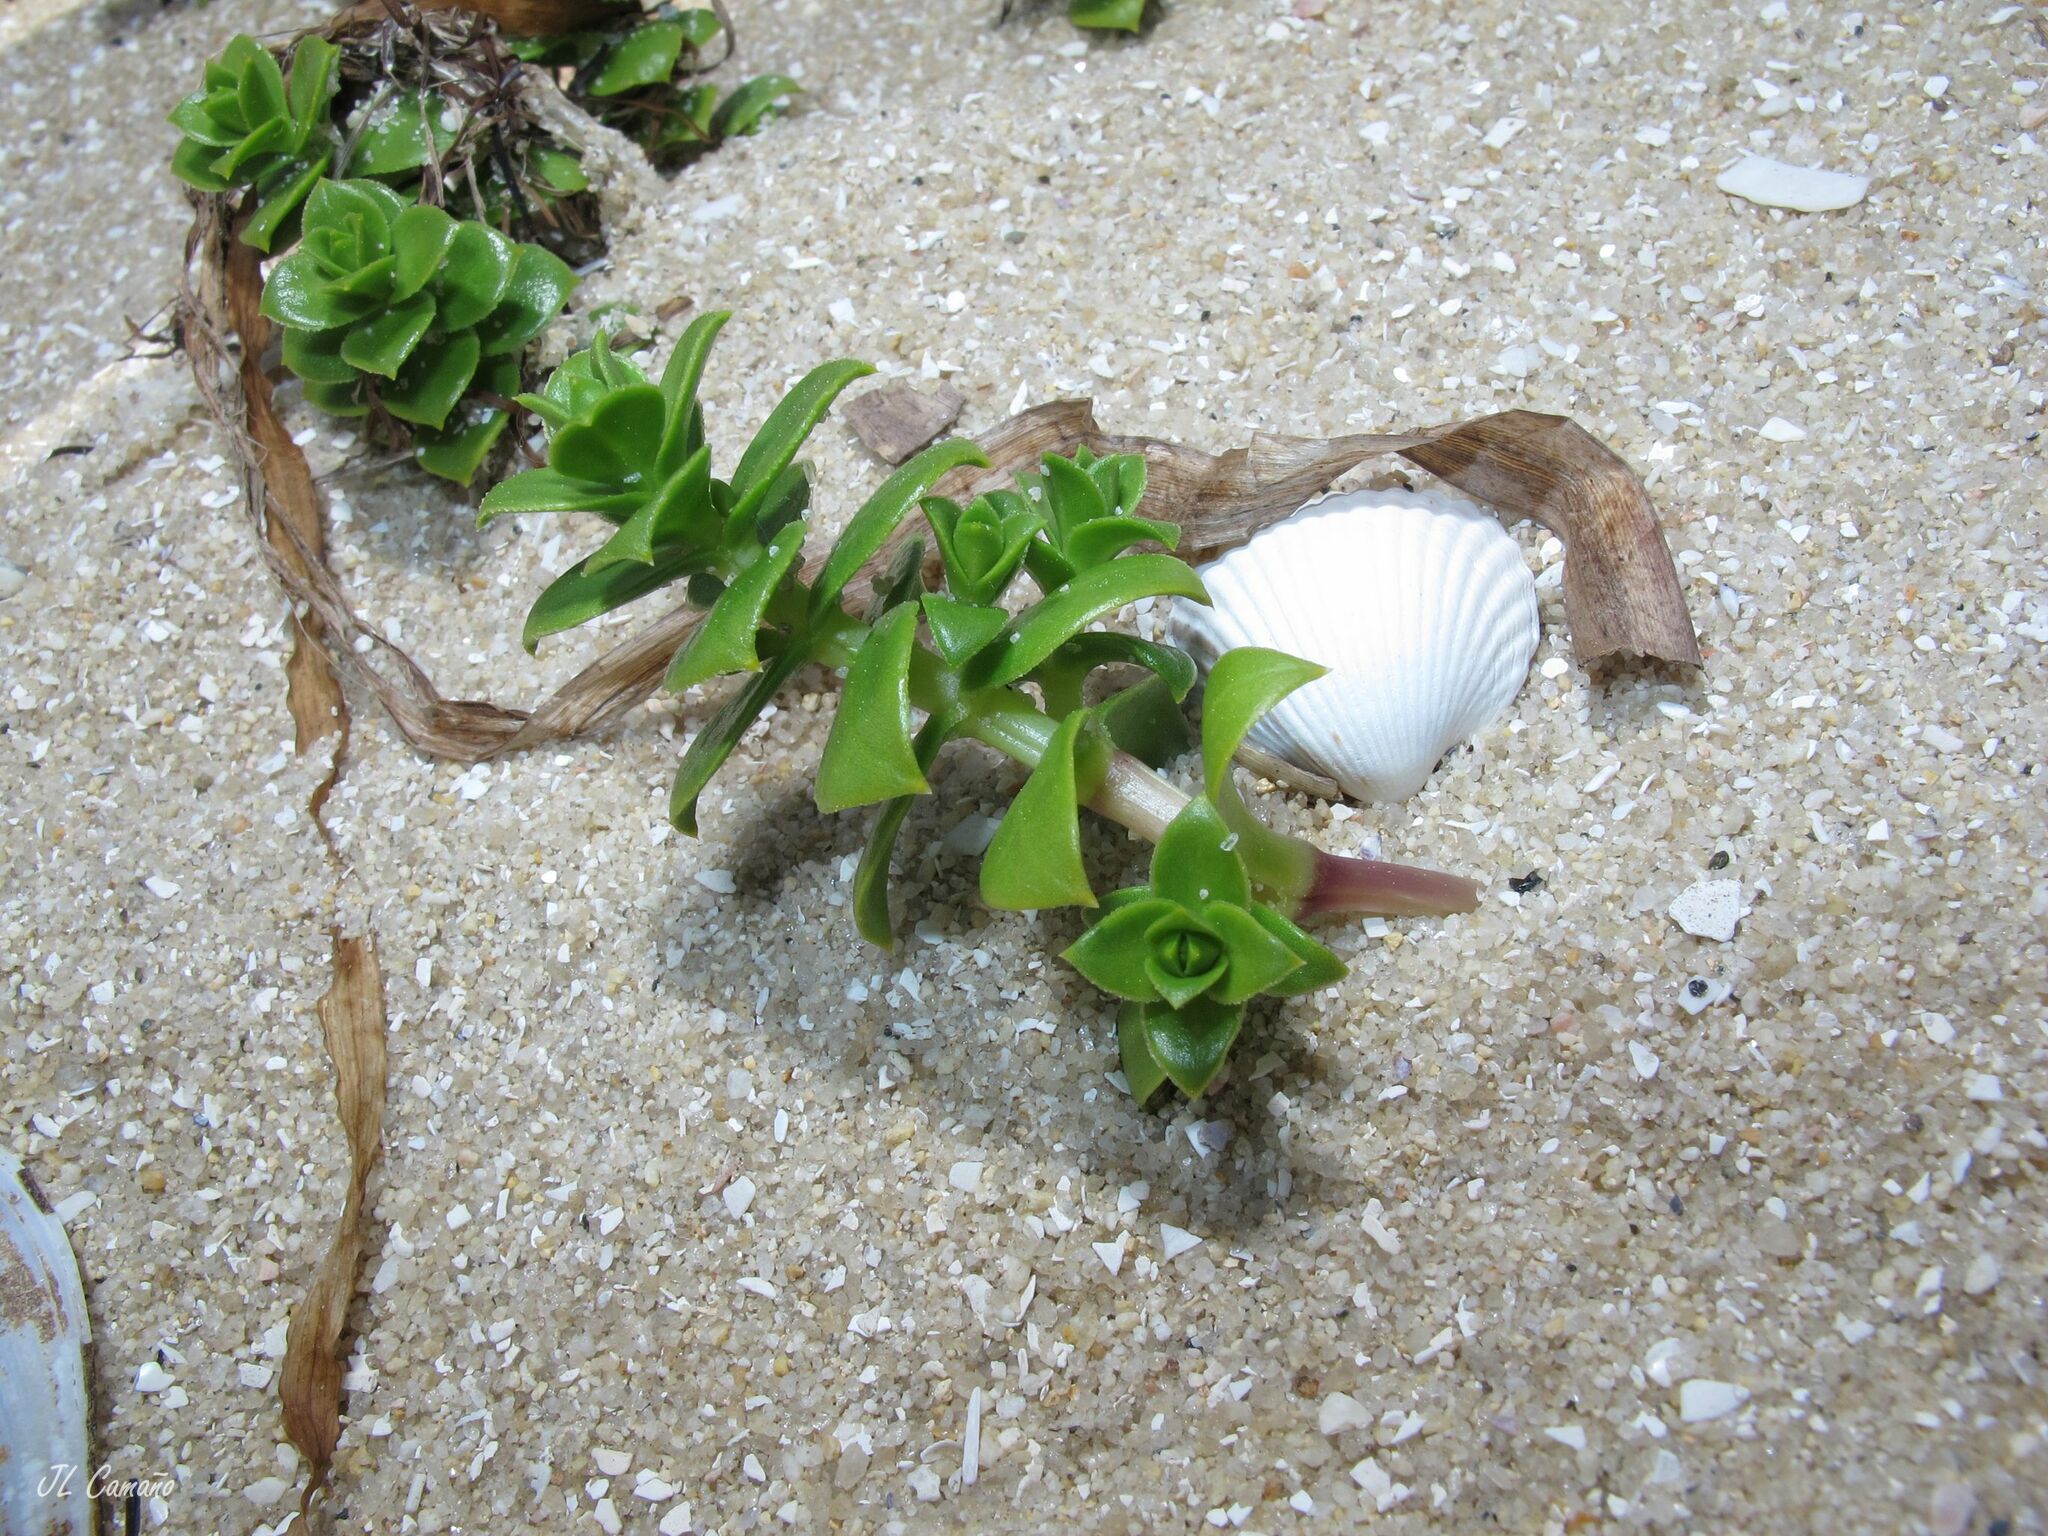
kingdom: Plantae
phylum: Tracheophyta
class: Magnoliopsida
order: Caryophyllales
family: Caryophyllaceae
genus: Honckenya
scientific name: Honckenya peploides
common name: Sea sandwort
